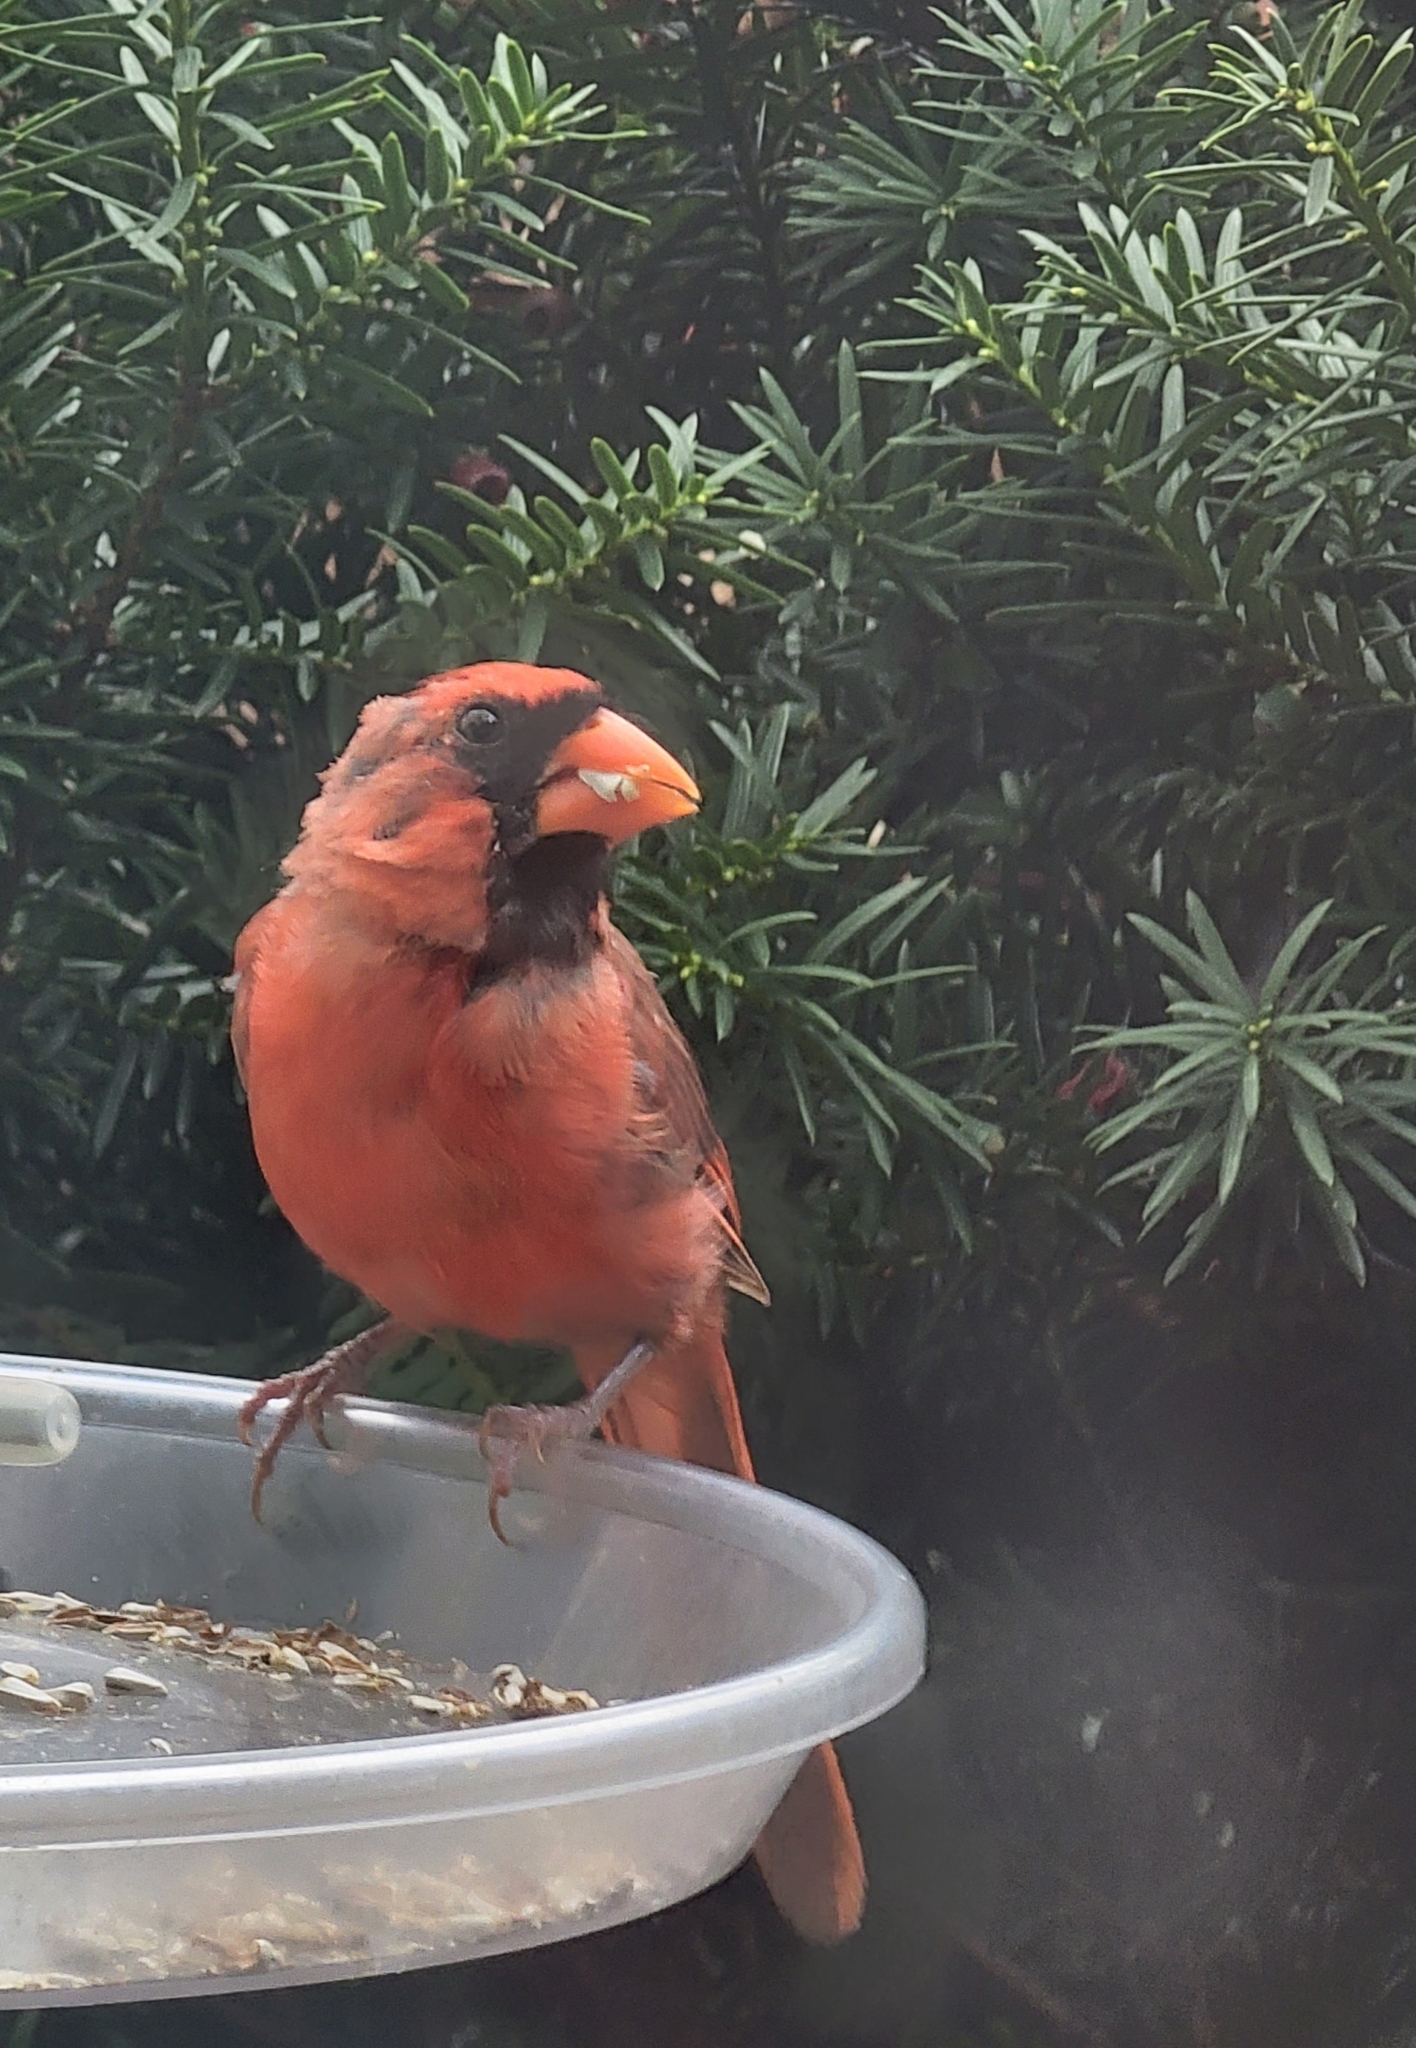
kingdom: Animalia
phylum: Chordata
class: Aves
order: Passeriformes
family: Cardinalidae
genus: Cardinalis
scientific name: Cardinalis cardinalis
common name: Northern cardinal
